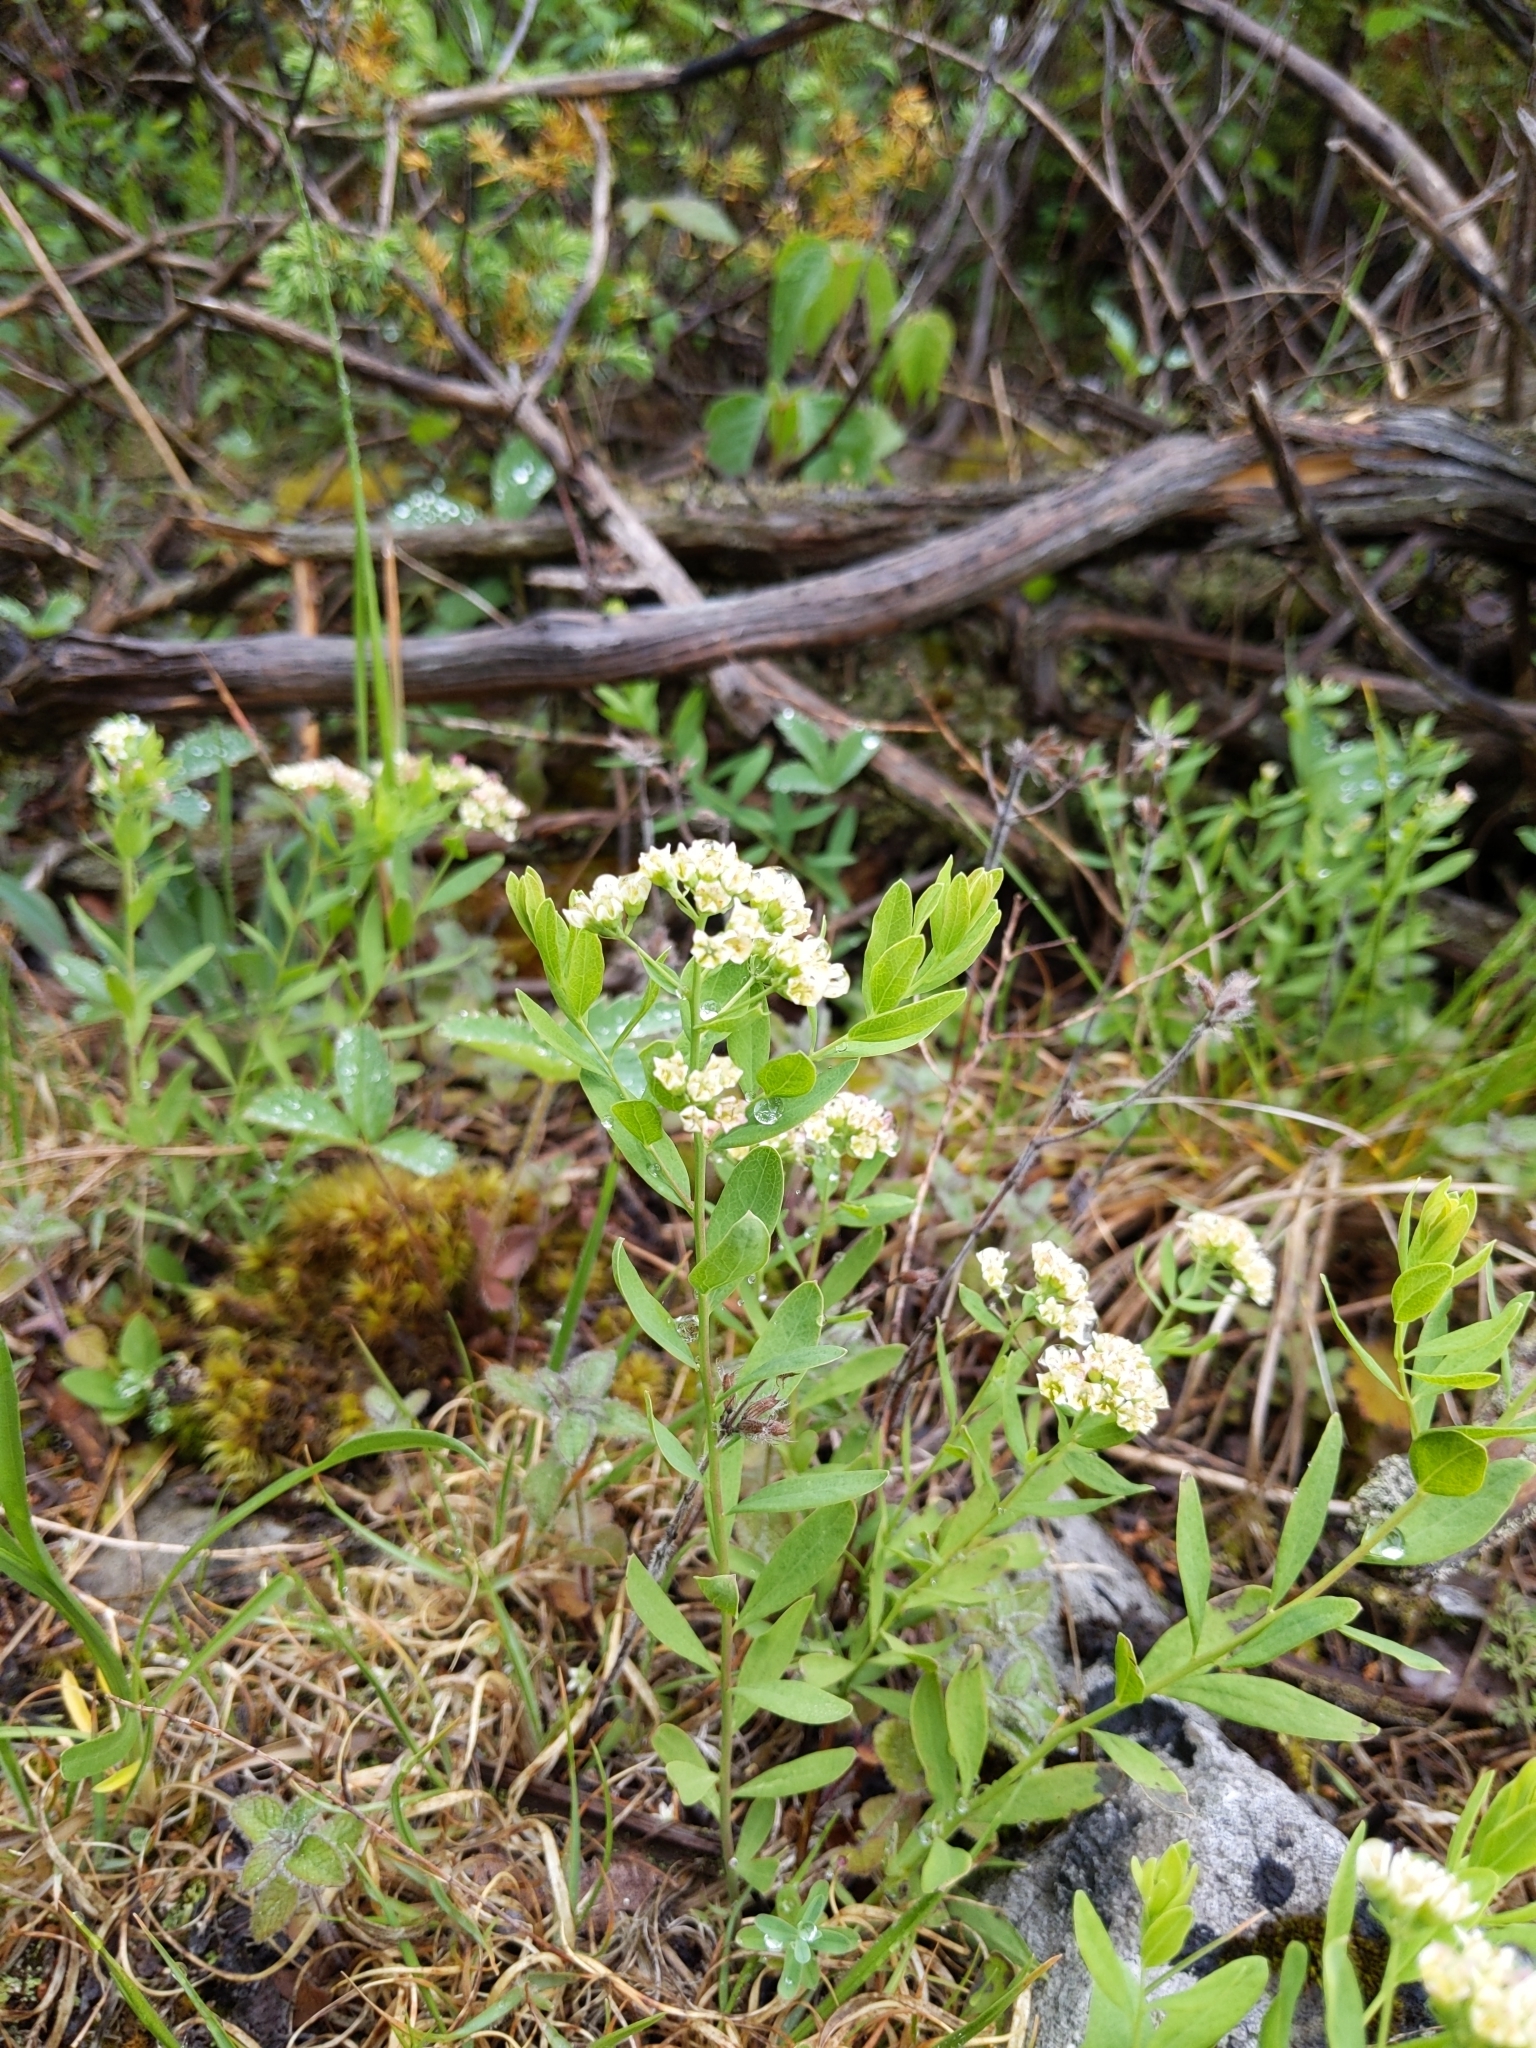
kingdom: Plantae
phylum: Tracheophyta
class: Magnoliopsida
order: Santalales
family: Comandraceae
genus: Comandra
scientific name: Comandra umbellata
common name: Bastard toadflax
